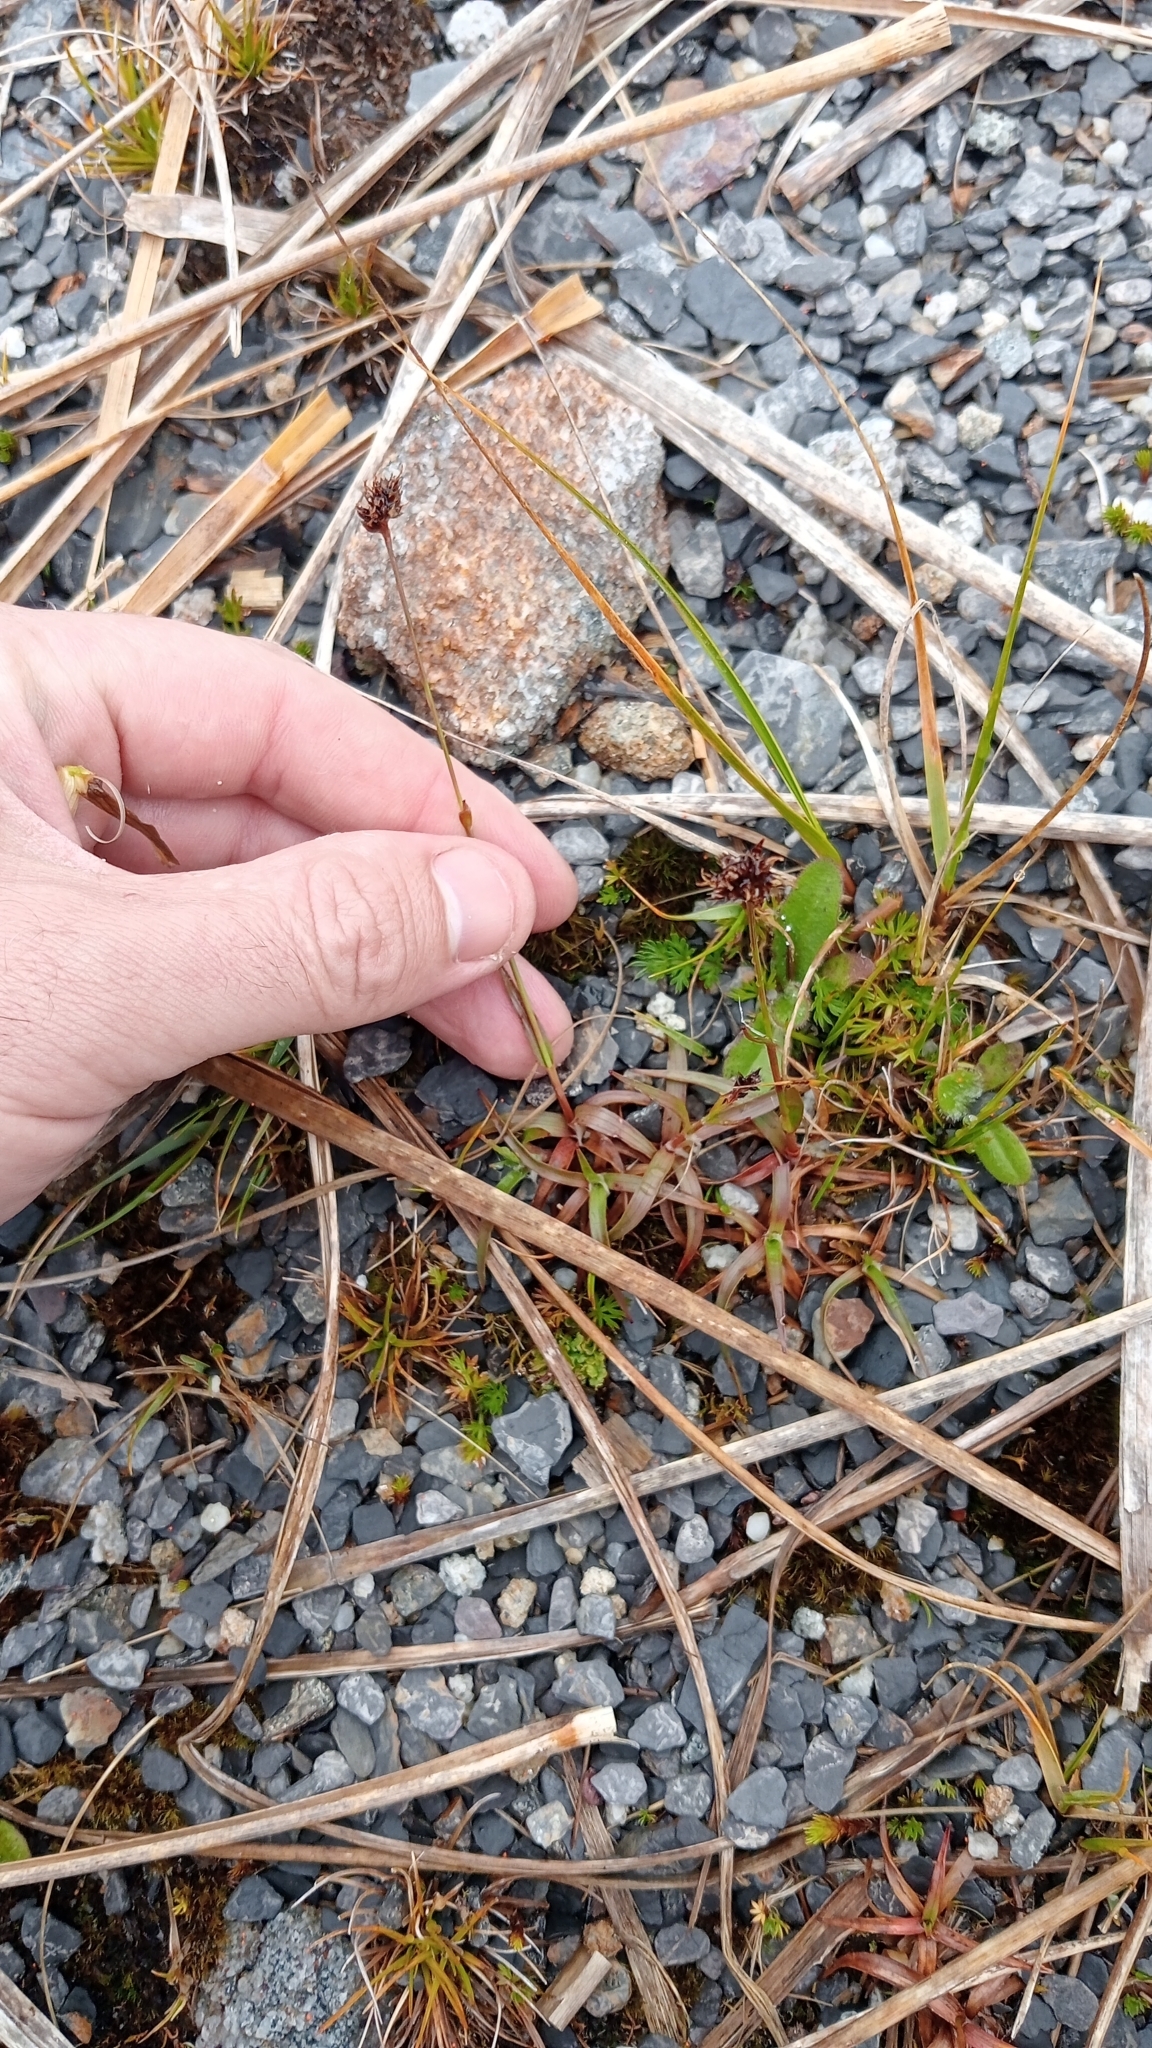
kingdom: Plantae
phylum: Tracheophyta
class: Liliopsida
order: Poales
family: Juncaceae
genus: Luzula
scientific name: Luzula rufa
